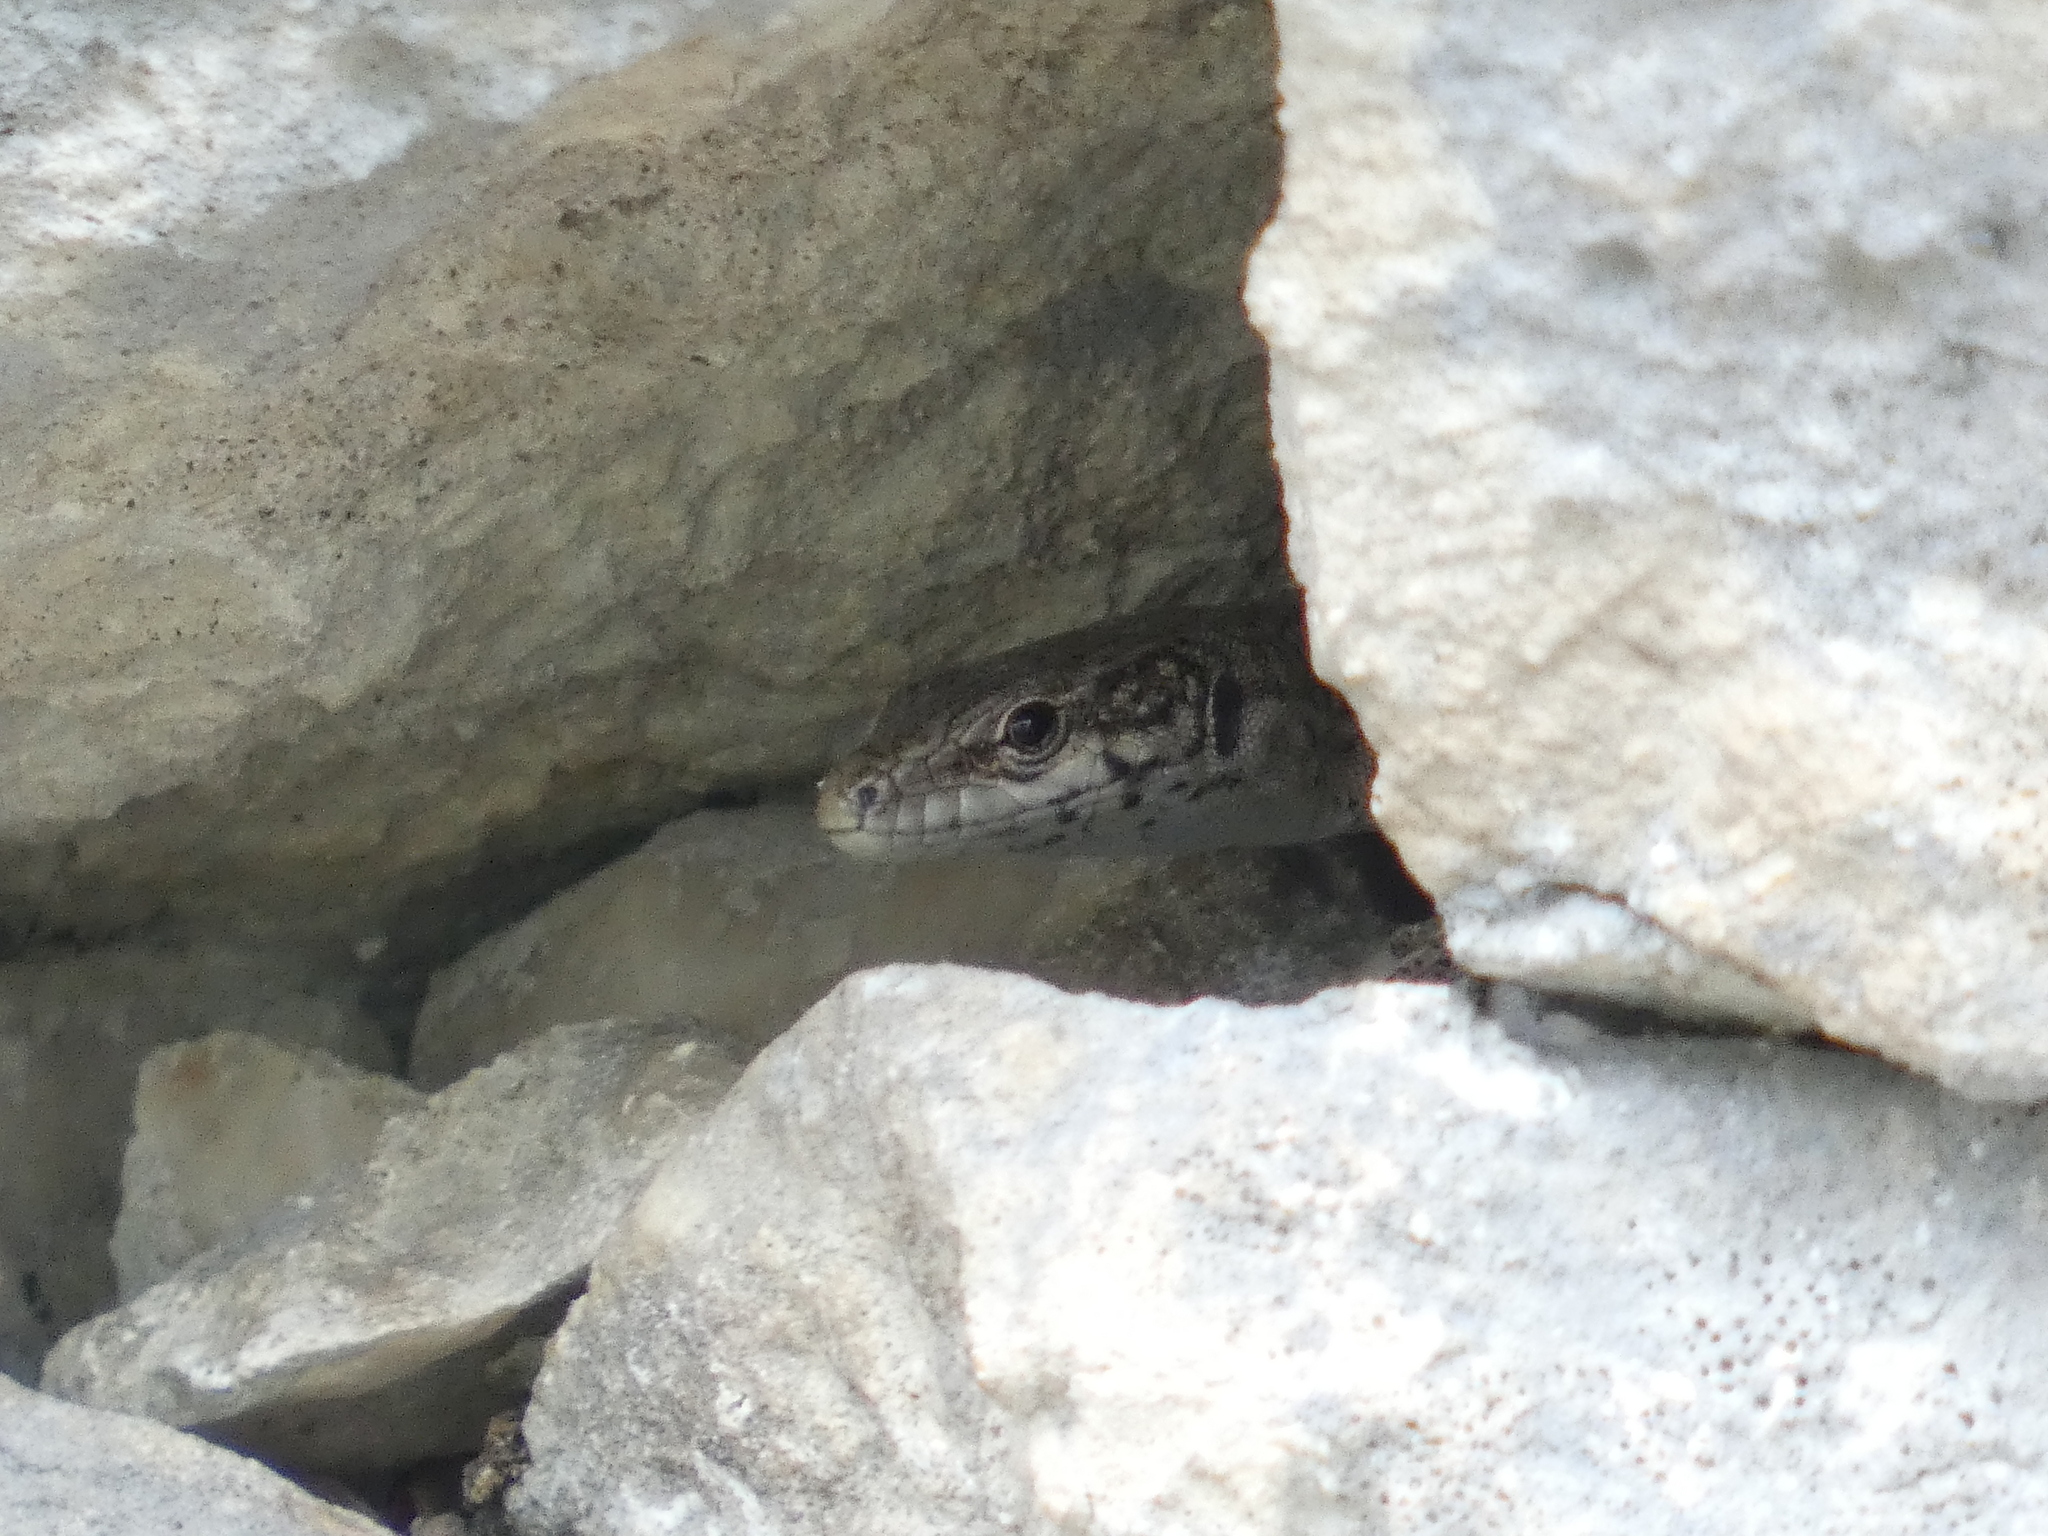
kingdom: Animalia
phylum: Chordata
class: Squamata
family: Lacertidae
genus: Podarcis
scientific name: Podarcis liolepis
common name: Catalonian wall lizard
